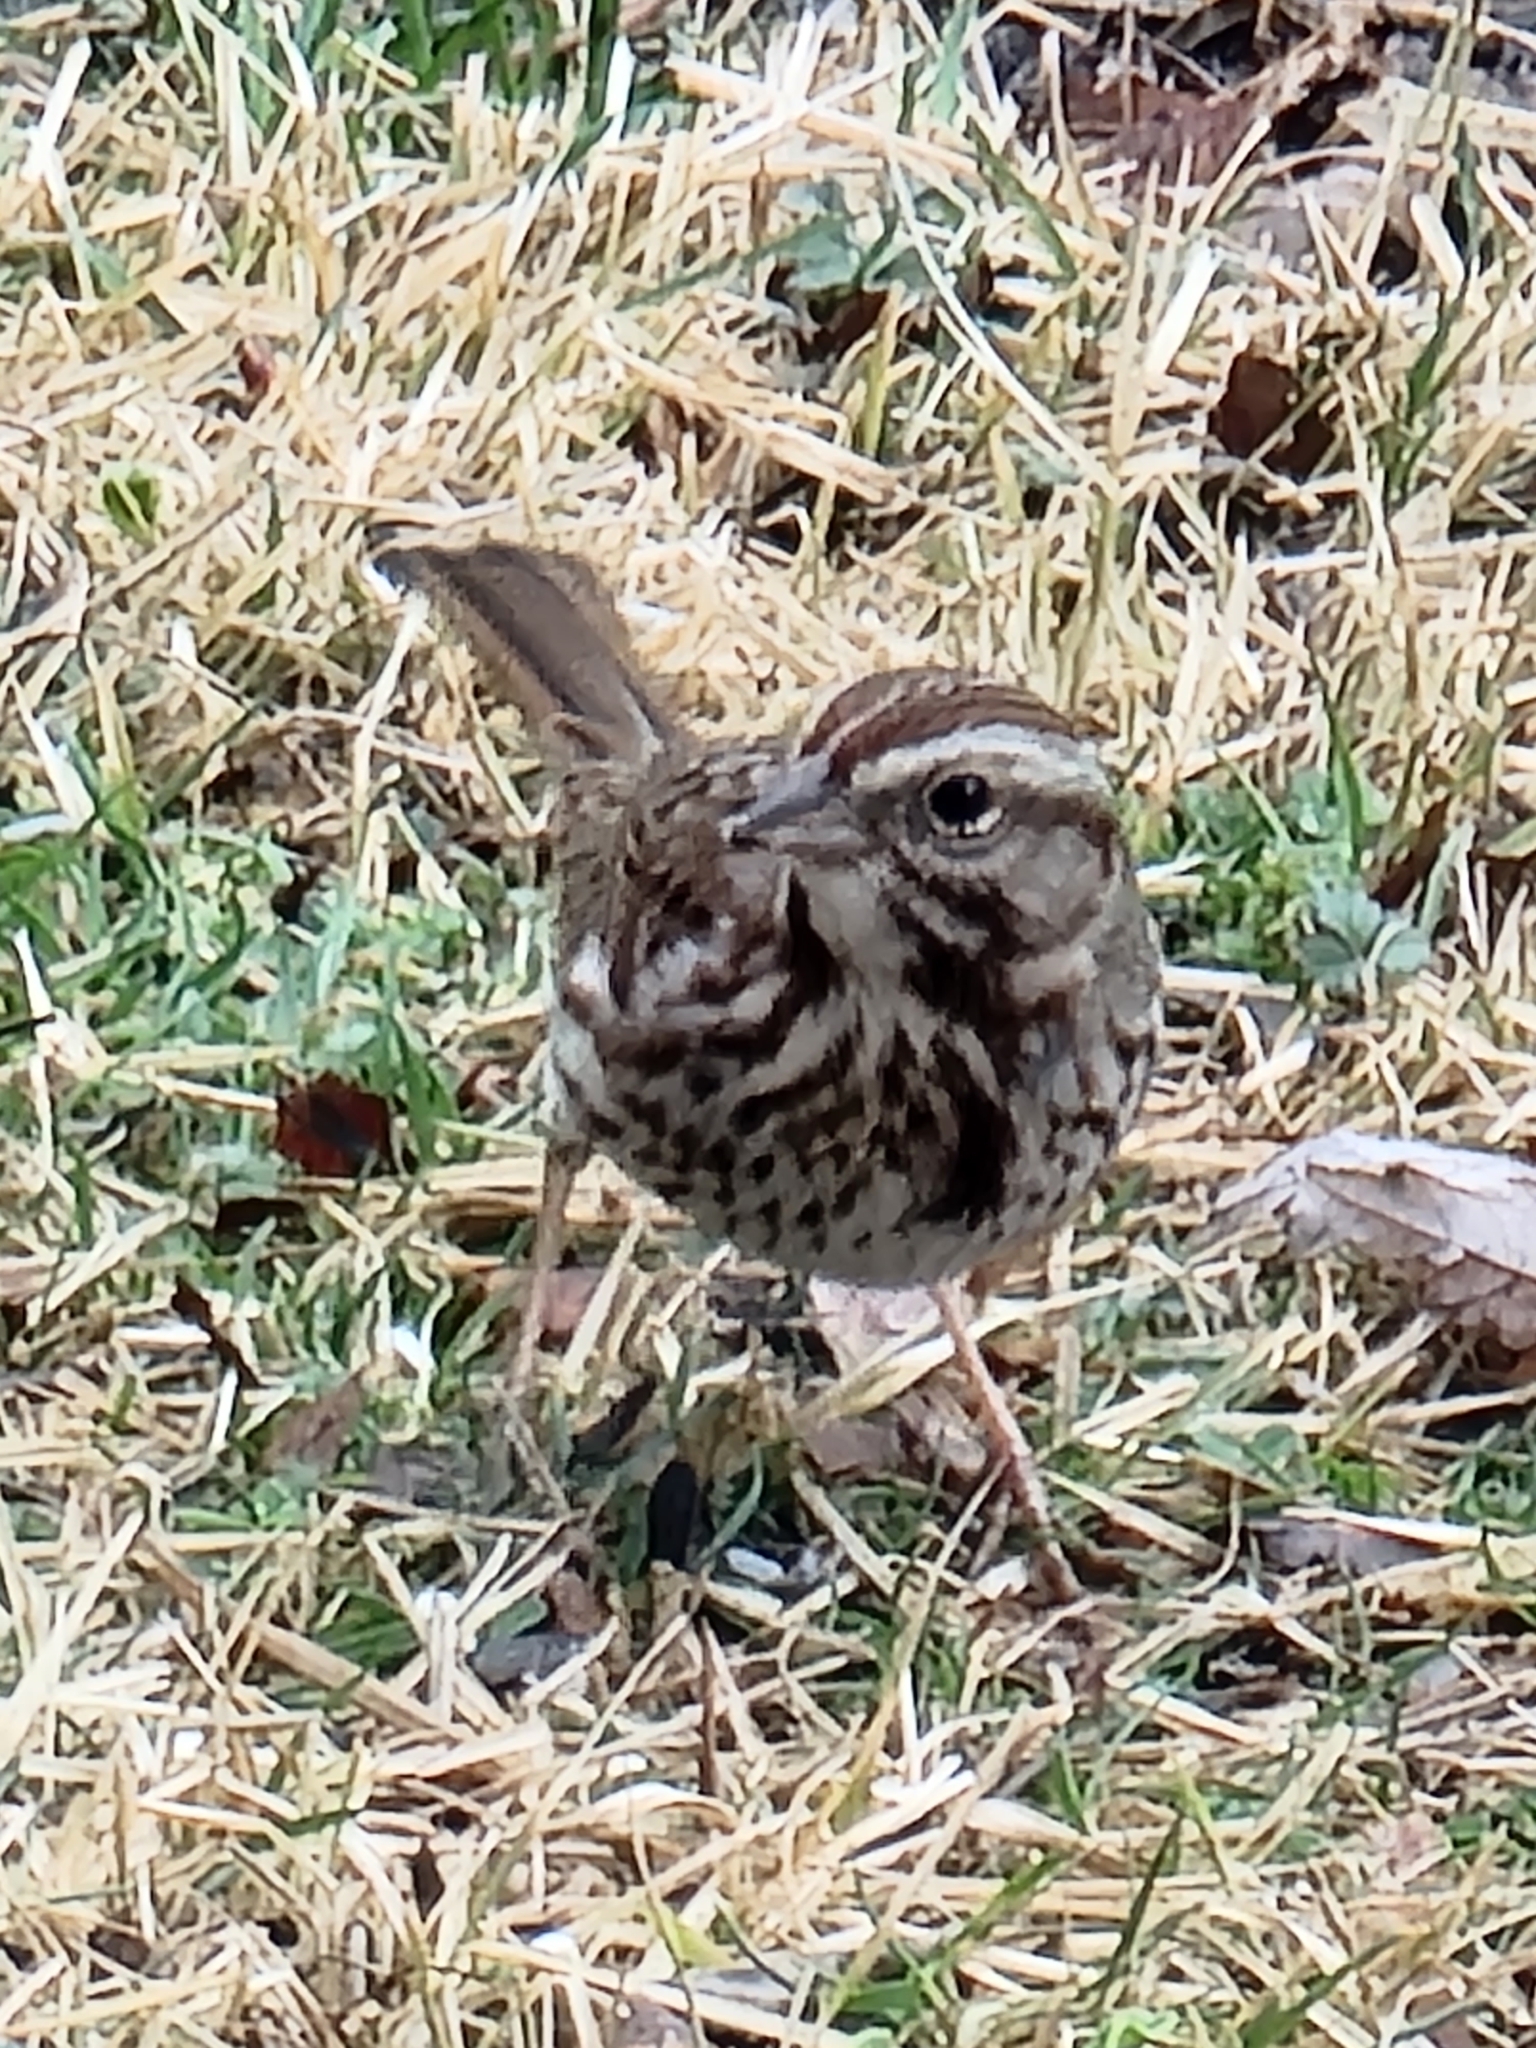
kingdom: Animalia
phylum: Chordata
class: Aves
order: Passeriformes
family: Passerellidae
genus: Melospiza
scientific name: Melospiza melodia
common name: Song sparrow
